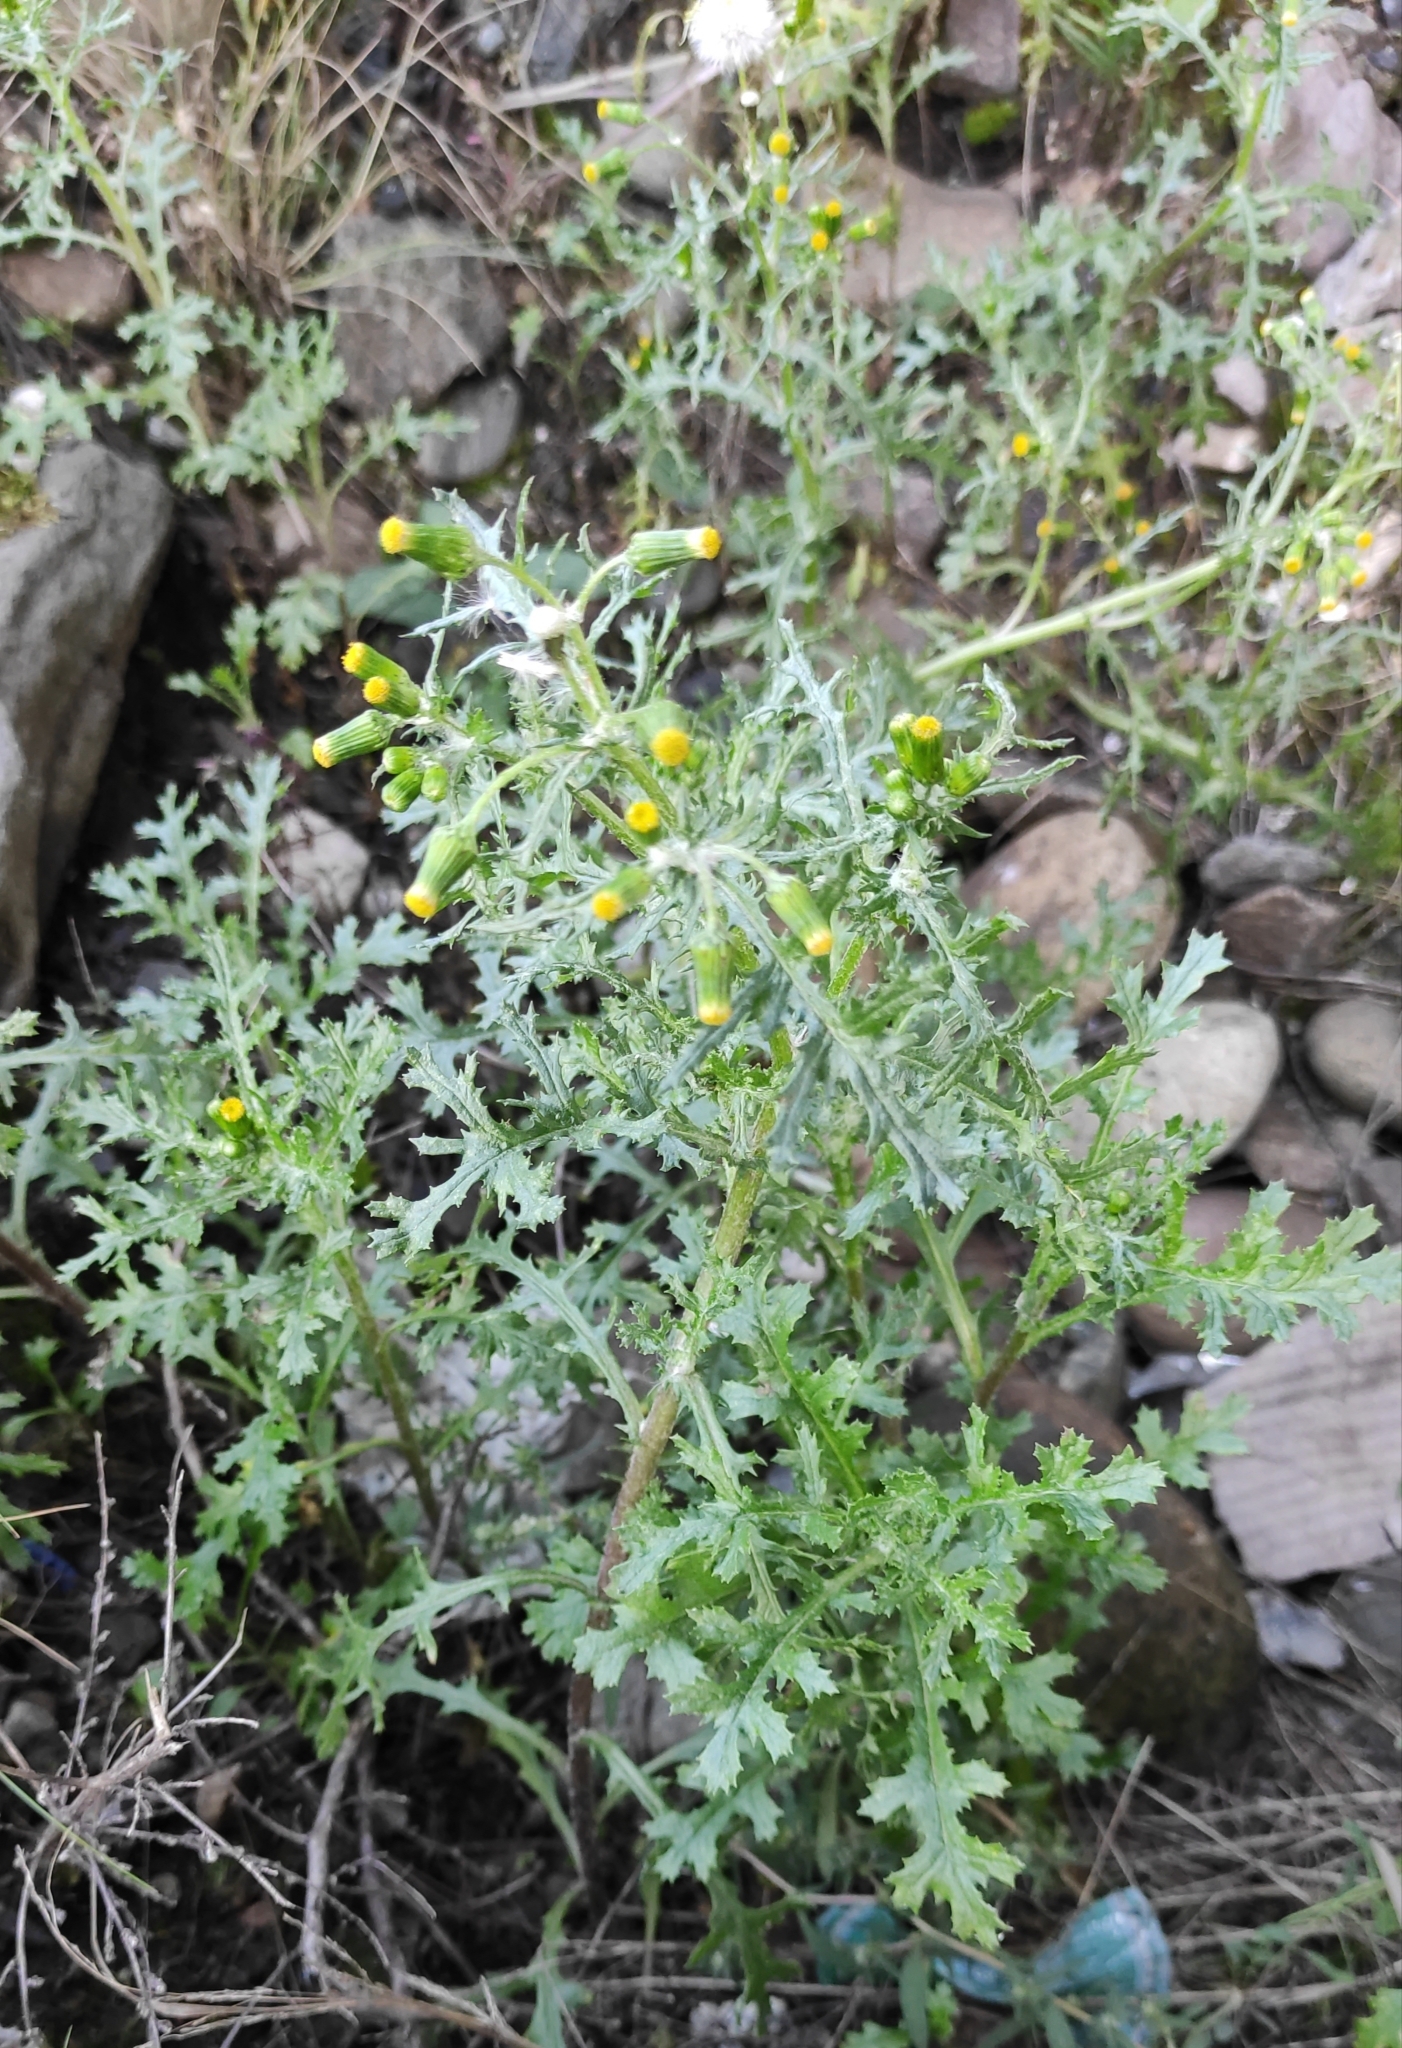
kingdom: Plantae
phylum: Tracheophyta
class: Magnoliopsida
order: Asterales
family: Asteraceae
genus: Senecio
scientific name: Senecio vulgaris
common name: Old-man-in-the-spring
